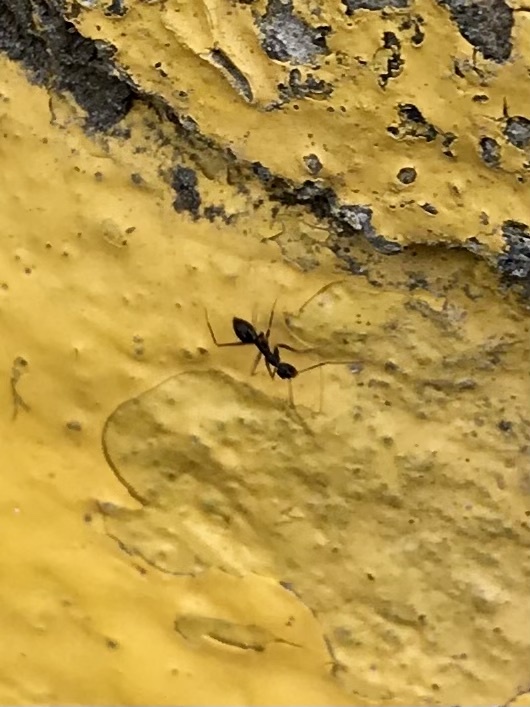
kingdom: Animalia
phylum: Arthropoda
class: Insecta
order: Hymenoptera
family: Formicidae
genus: Paratrechina
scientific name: Paratrechina longicornis
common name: Longhorned crazy ant
